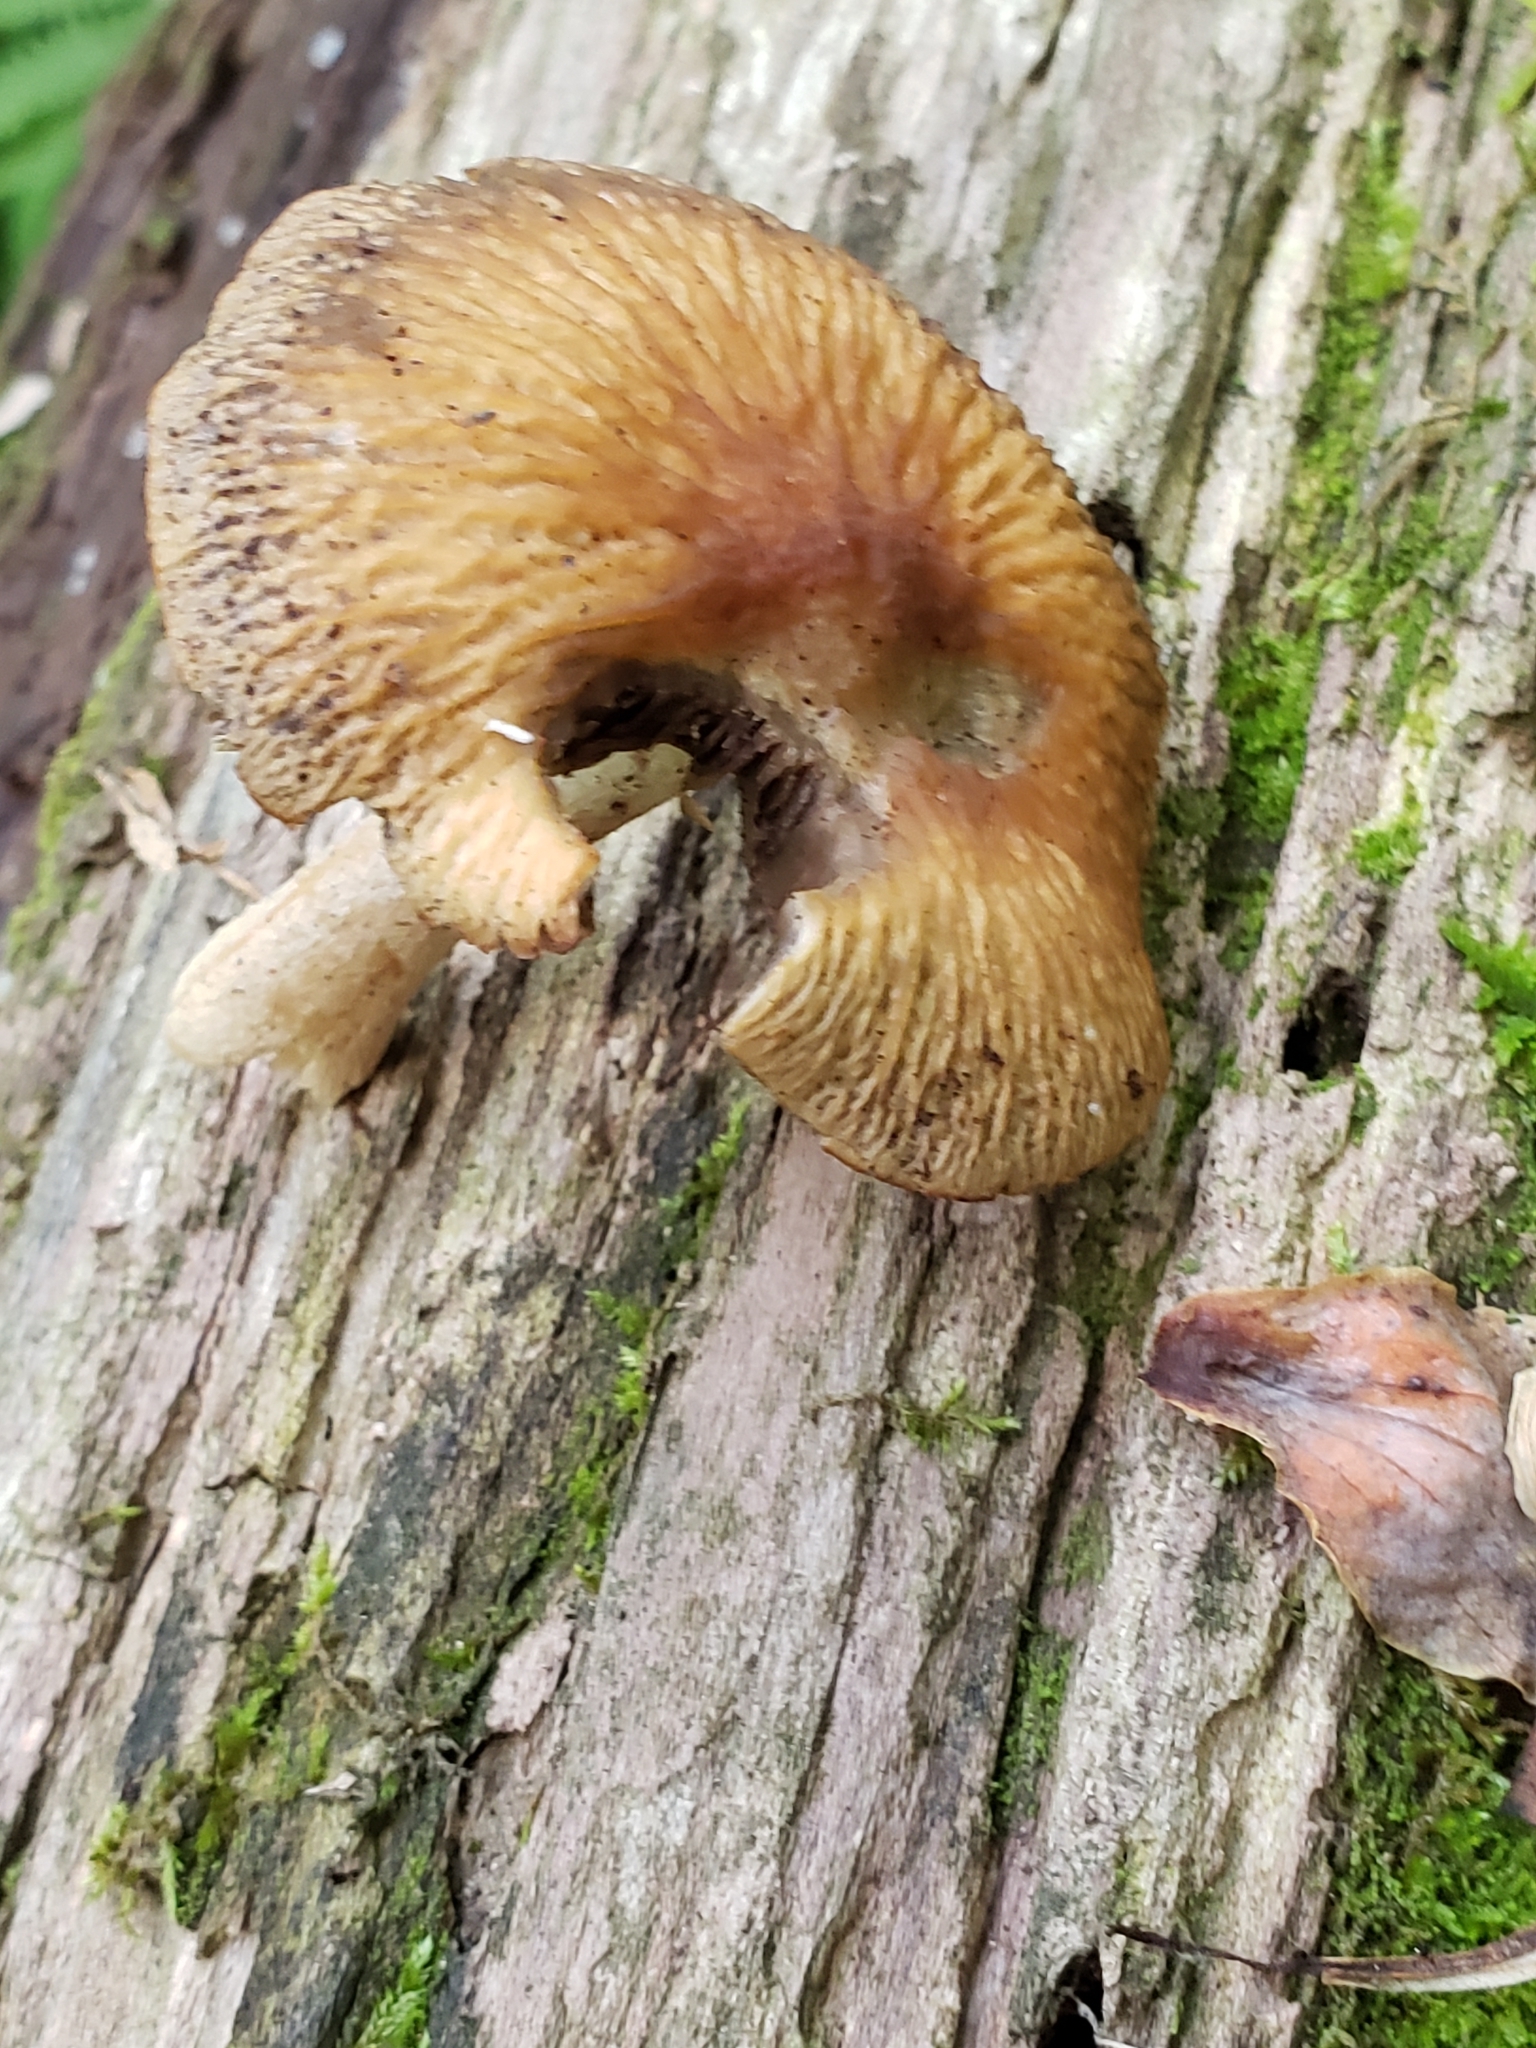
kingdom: Fungi
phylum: Basidiomycota
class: Agaricomycetes
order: Agaricales
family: Psathyrellaceae
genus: Typhrasa
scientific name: Typhrasa gossypina
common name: Wrinkled psathyrella
